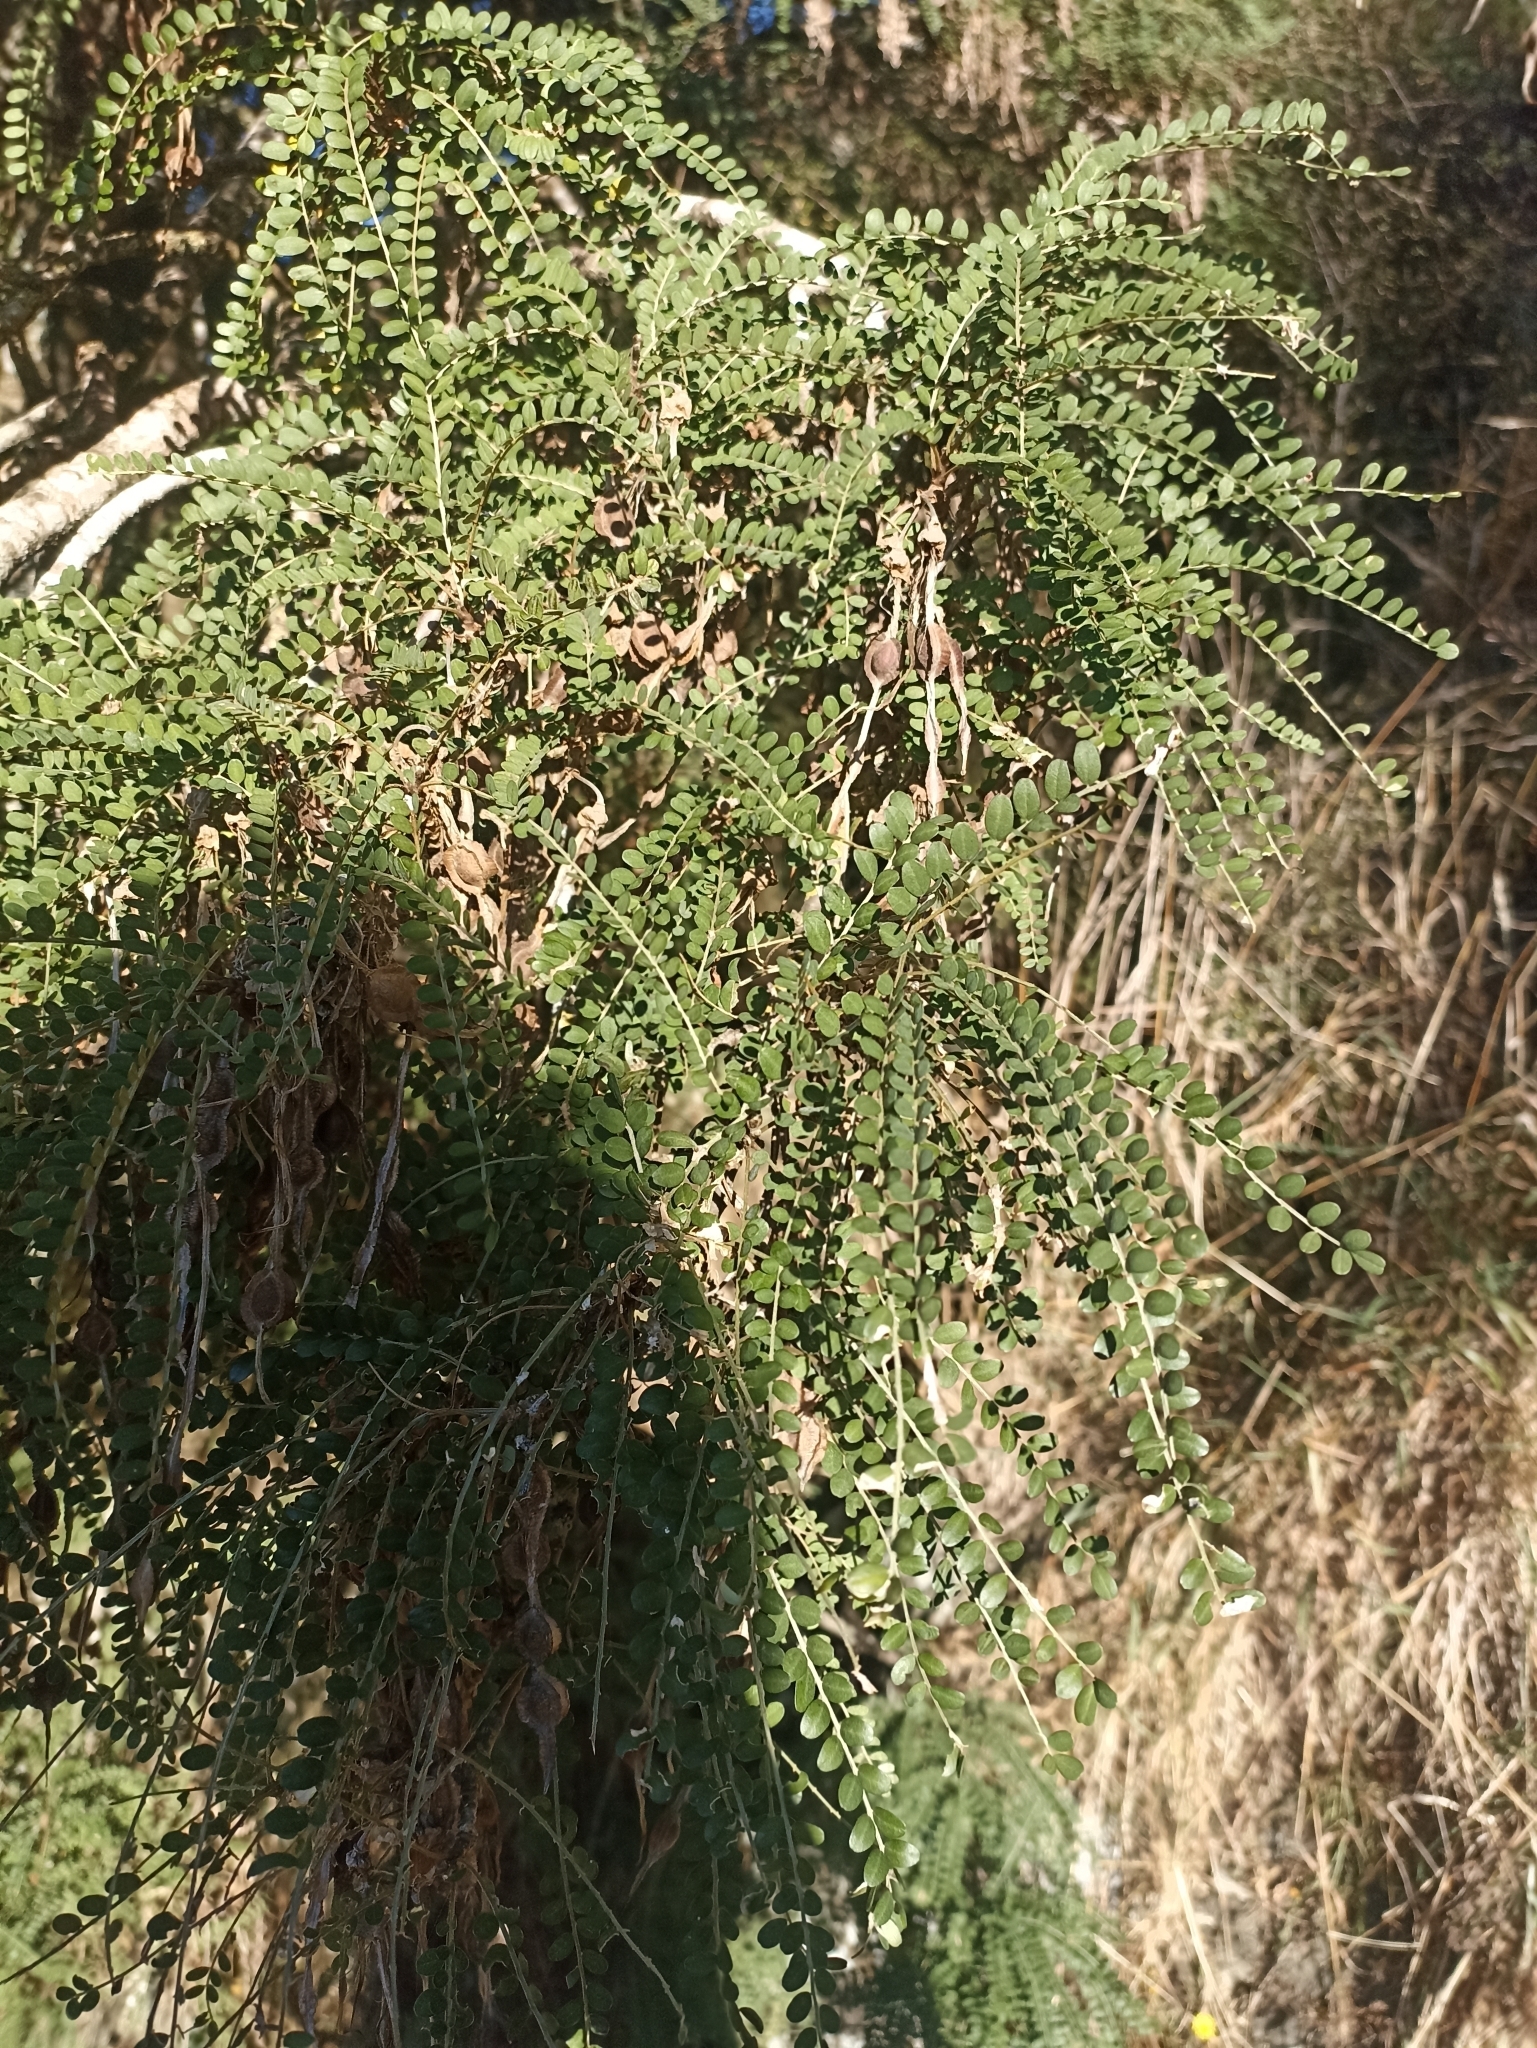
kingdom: Plantae
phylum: Tracheophyta
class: Magnoliopsida
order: Fabales
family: Fabaceae
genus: Sophora
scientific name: Sophora microphylla
